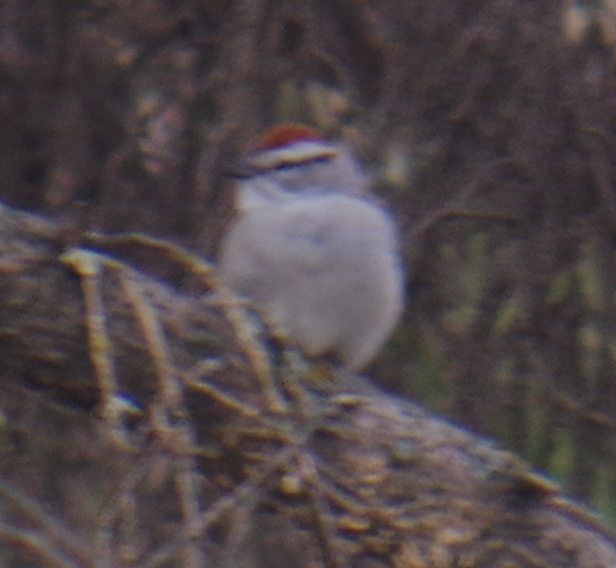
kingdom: Animalia
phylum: Chordata
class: Aves
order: Passeriformes
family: Passerellidae
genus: Spizella
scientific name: Spizella passerina
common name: Chipping sparrow
